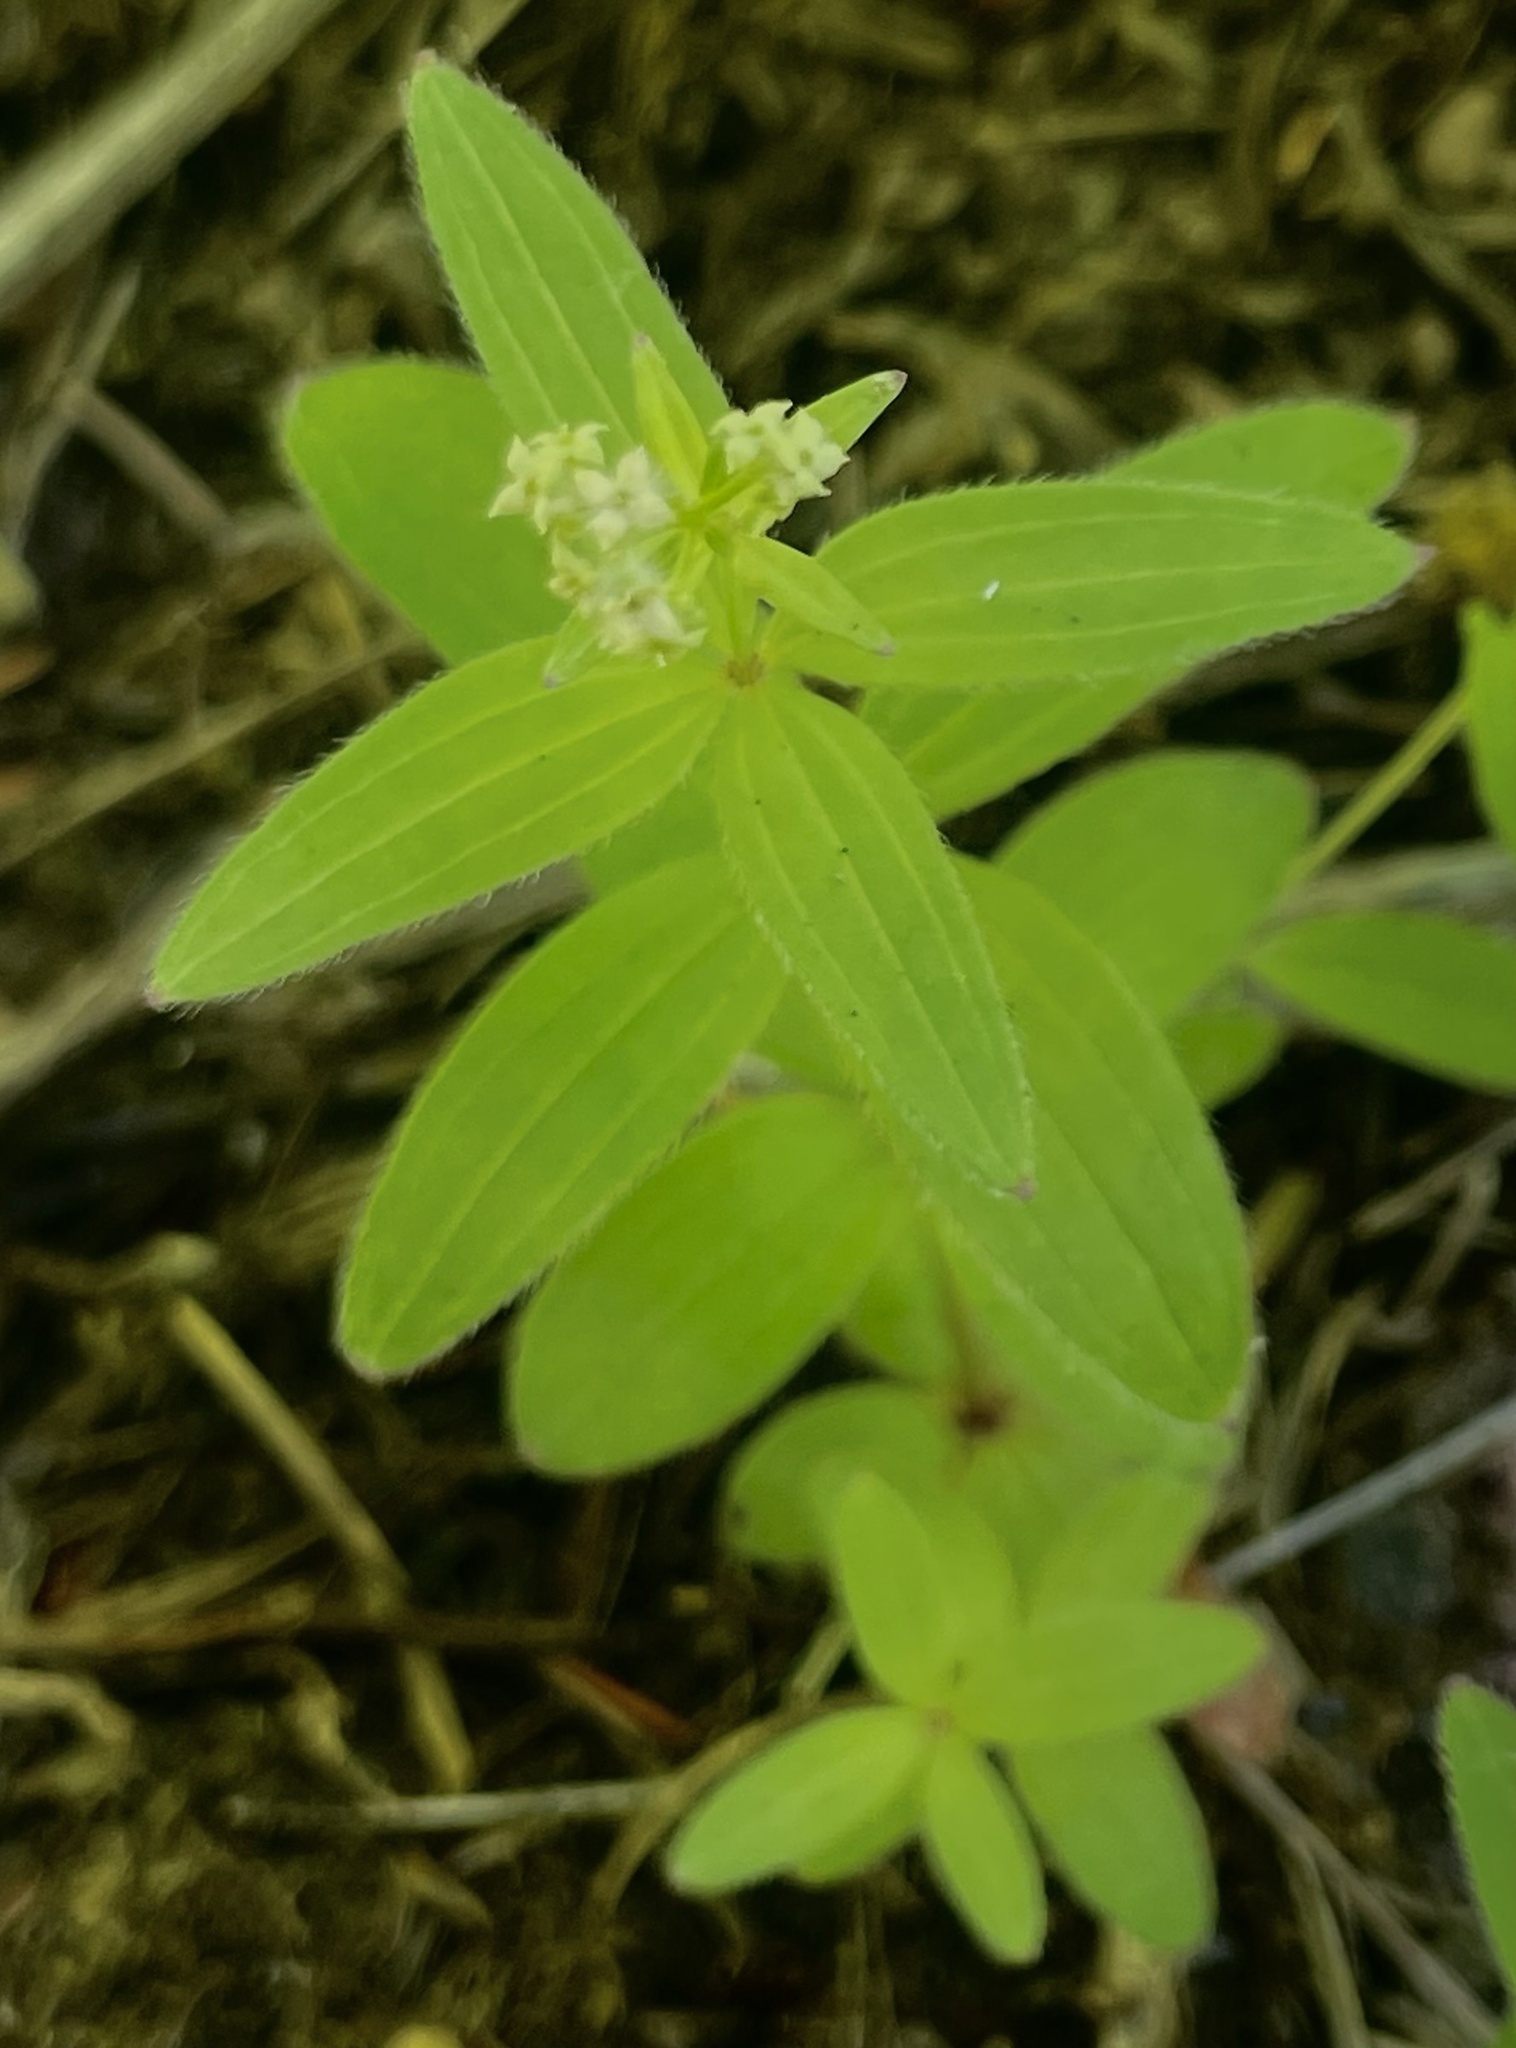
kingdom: Plantae
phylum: Tracheophyta
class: Magnoliopsida
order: Gentianales
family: Rubiaceae
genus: Galium
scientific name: Galium oreganum
